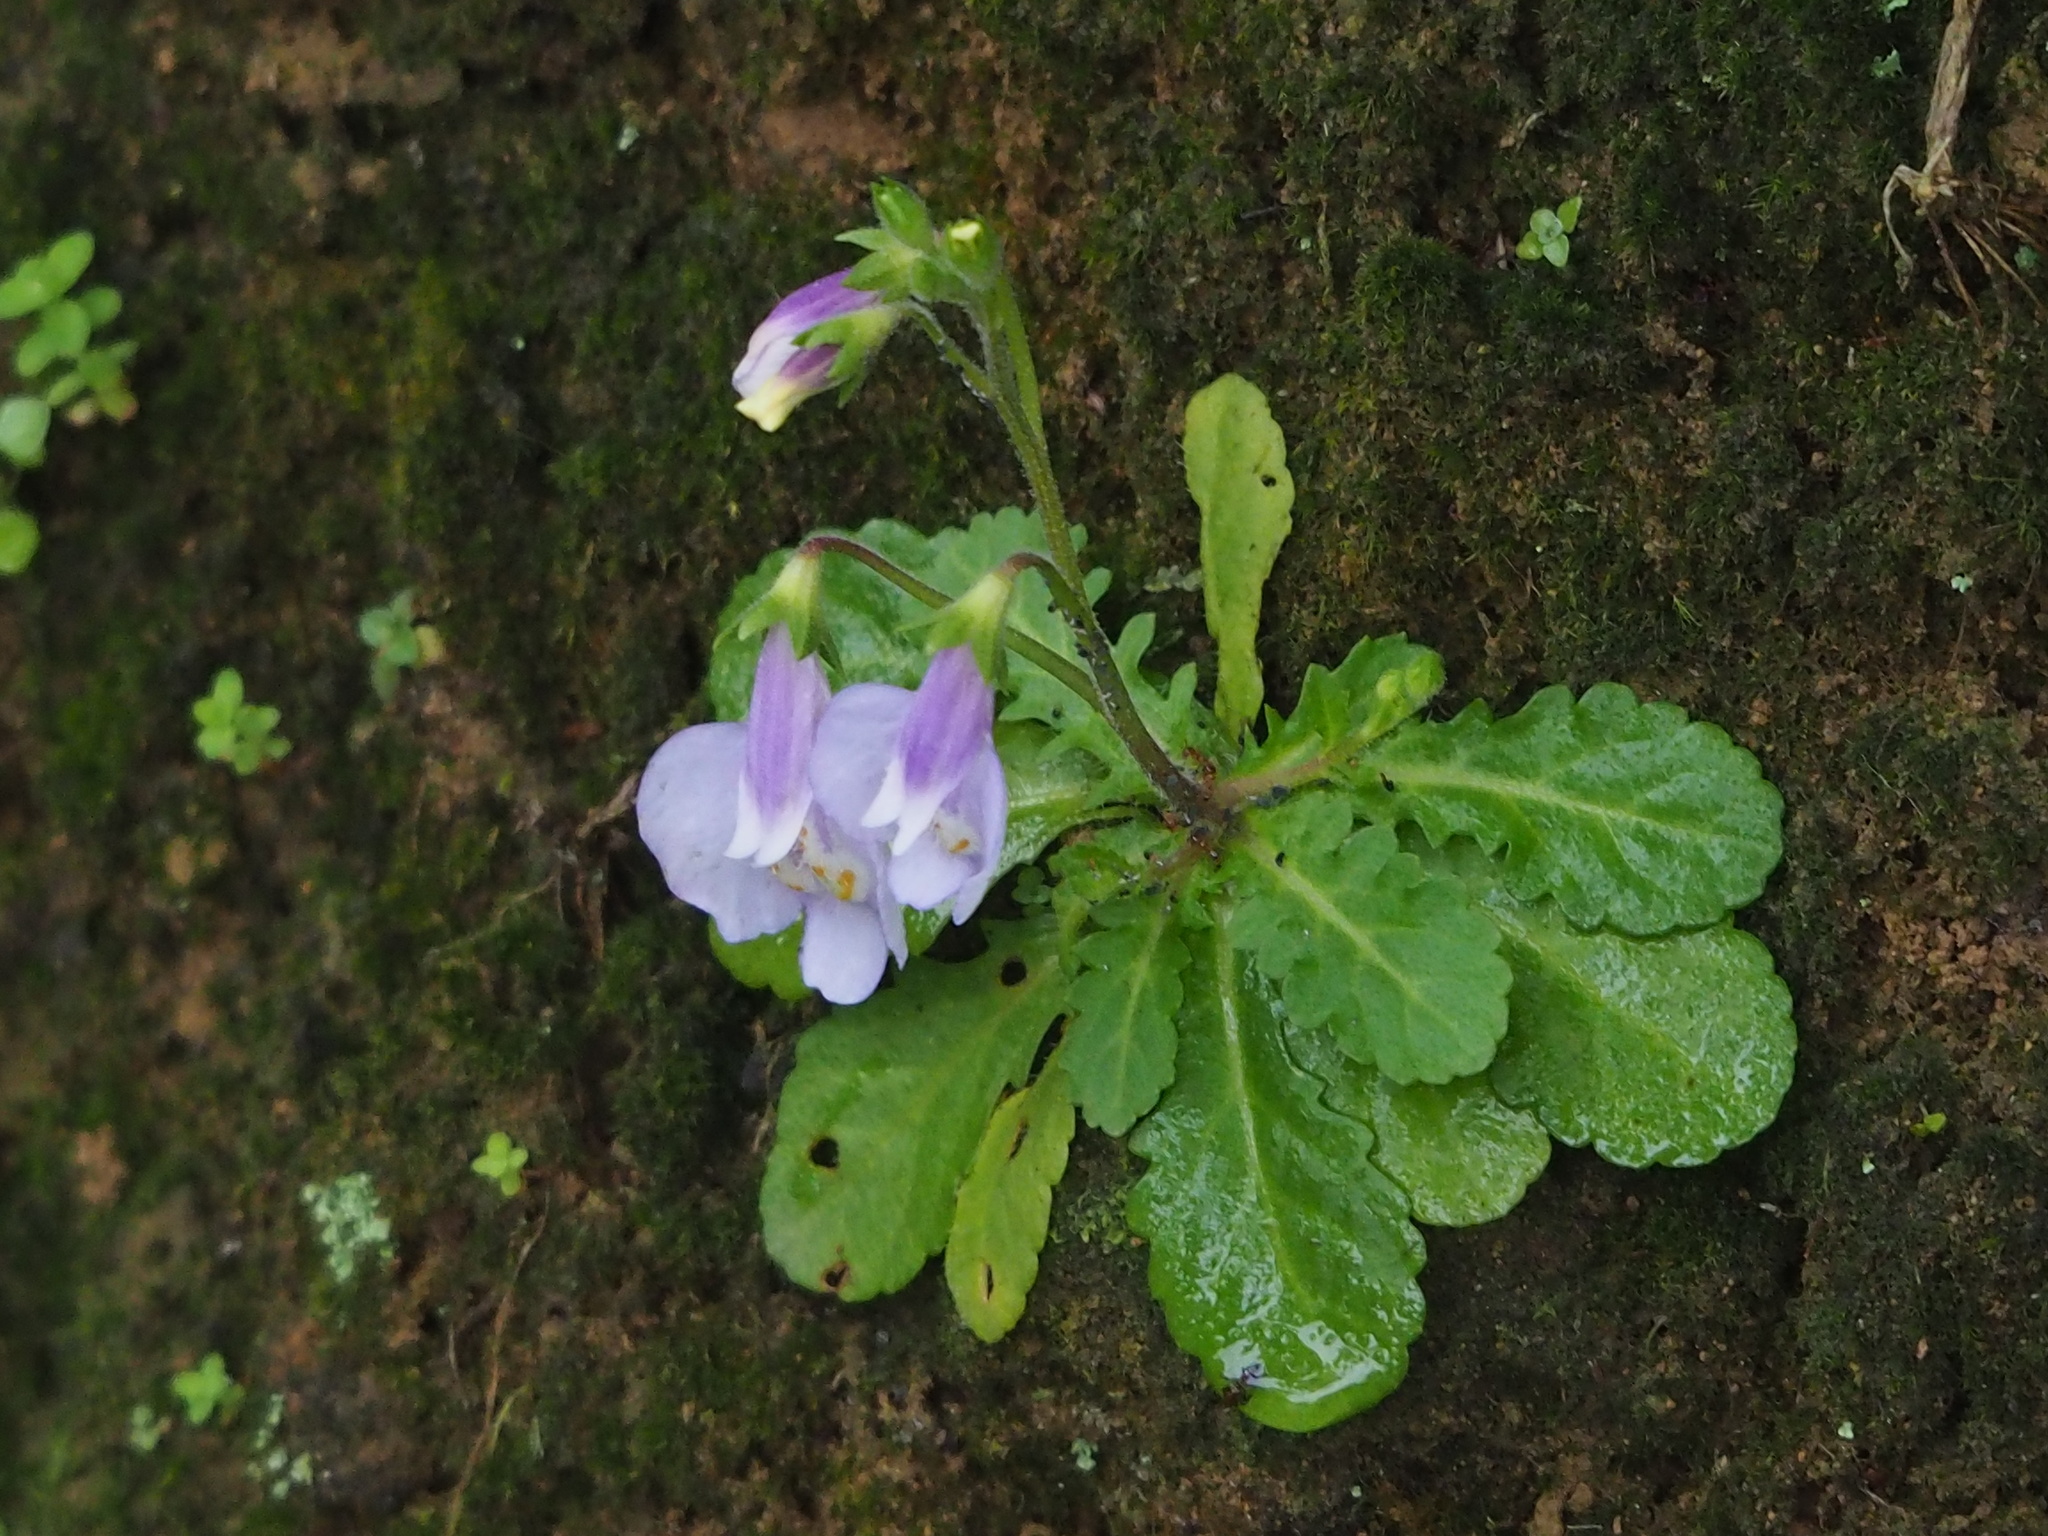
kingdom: Plantae
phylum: Tracheophyta
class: Magnoliopsida
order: Lamiales
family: Mazaceae
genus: Mazus
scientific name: Mazus fauriei
